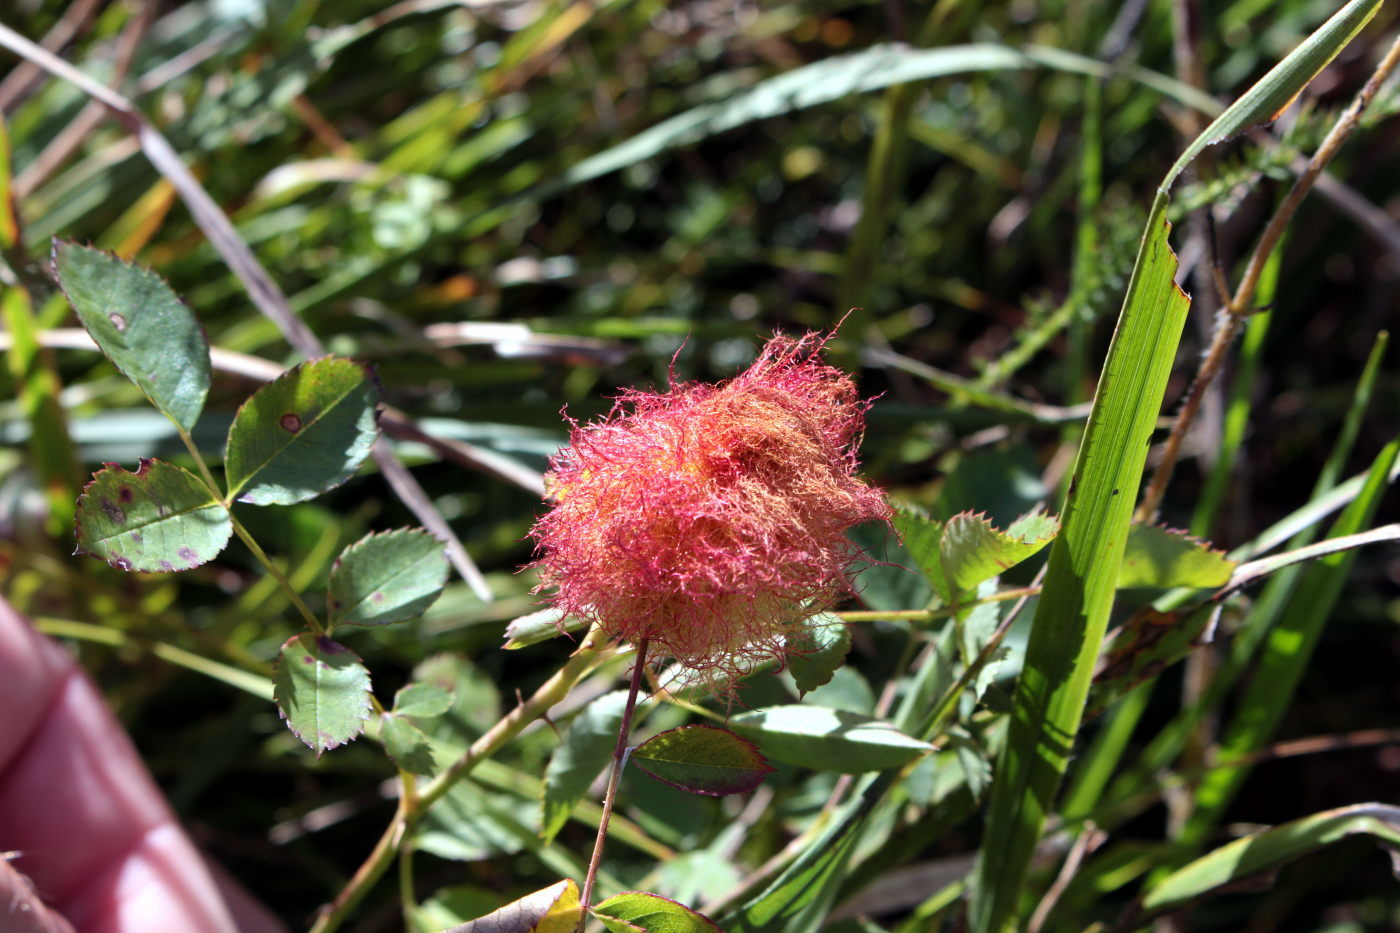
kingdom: Animalia
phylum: Arthropoda
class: Insecta
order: Hymenoptera
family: Cynipidae
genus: Diplolepis
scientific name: Diplolepis rosae
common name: Bedeguar gall
